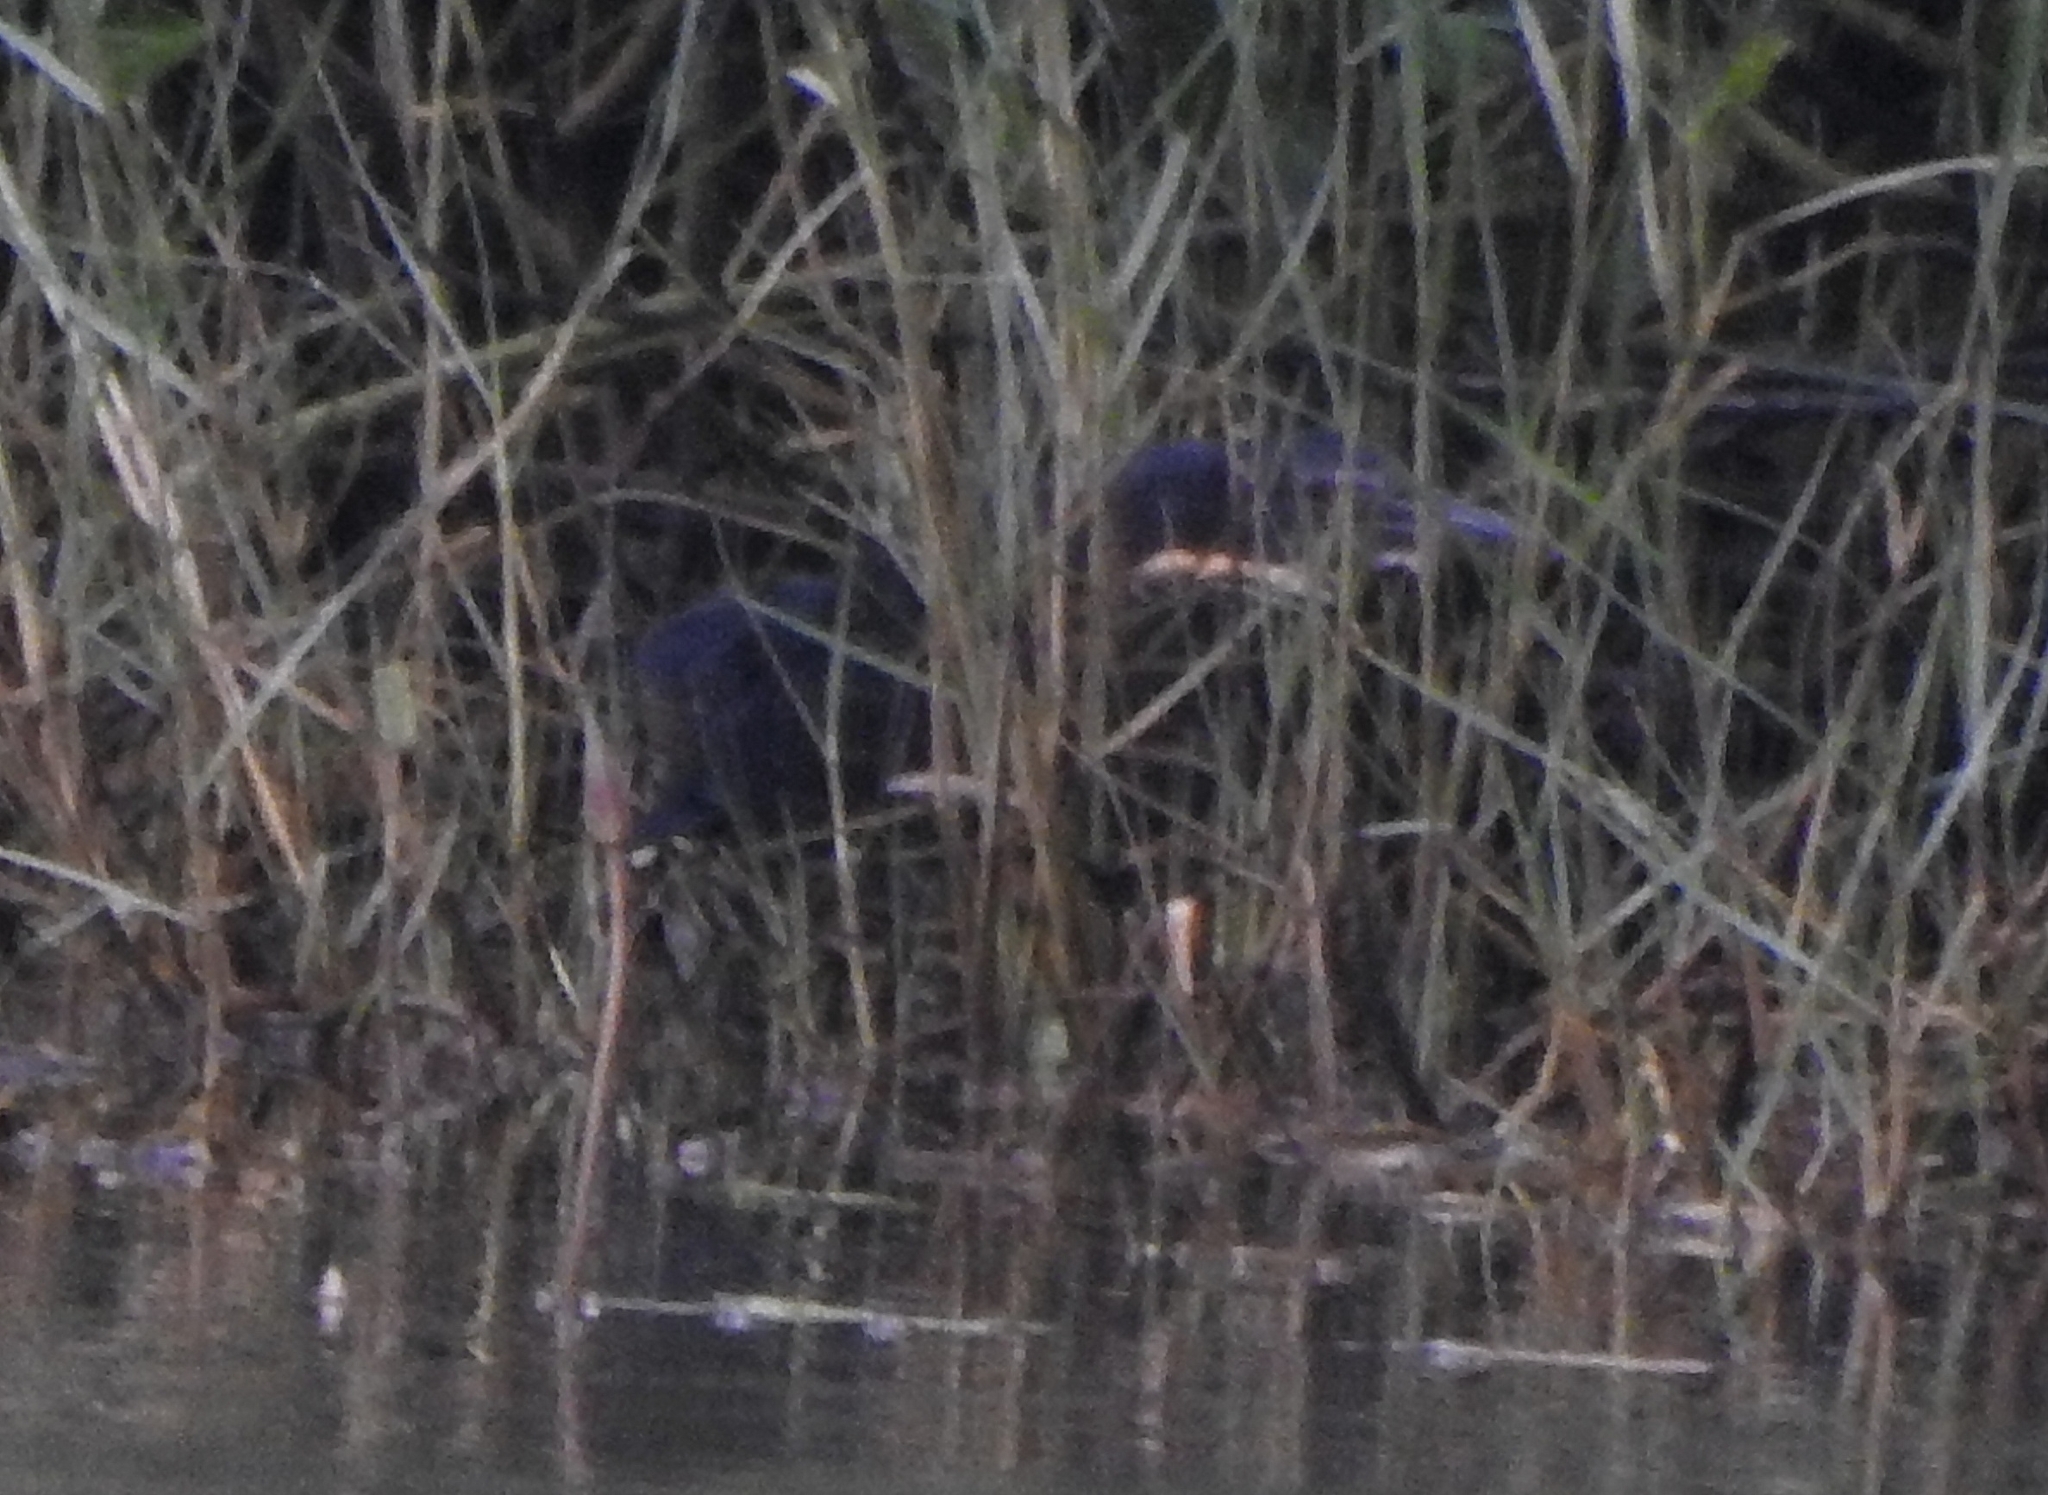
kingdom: Animalia
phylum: Chordata
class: Aves
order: Pelecaniformes
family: Ardeidae
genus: Dupetor
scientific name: Dupetor flavicollis
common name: Black bittern
